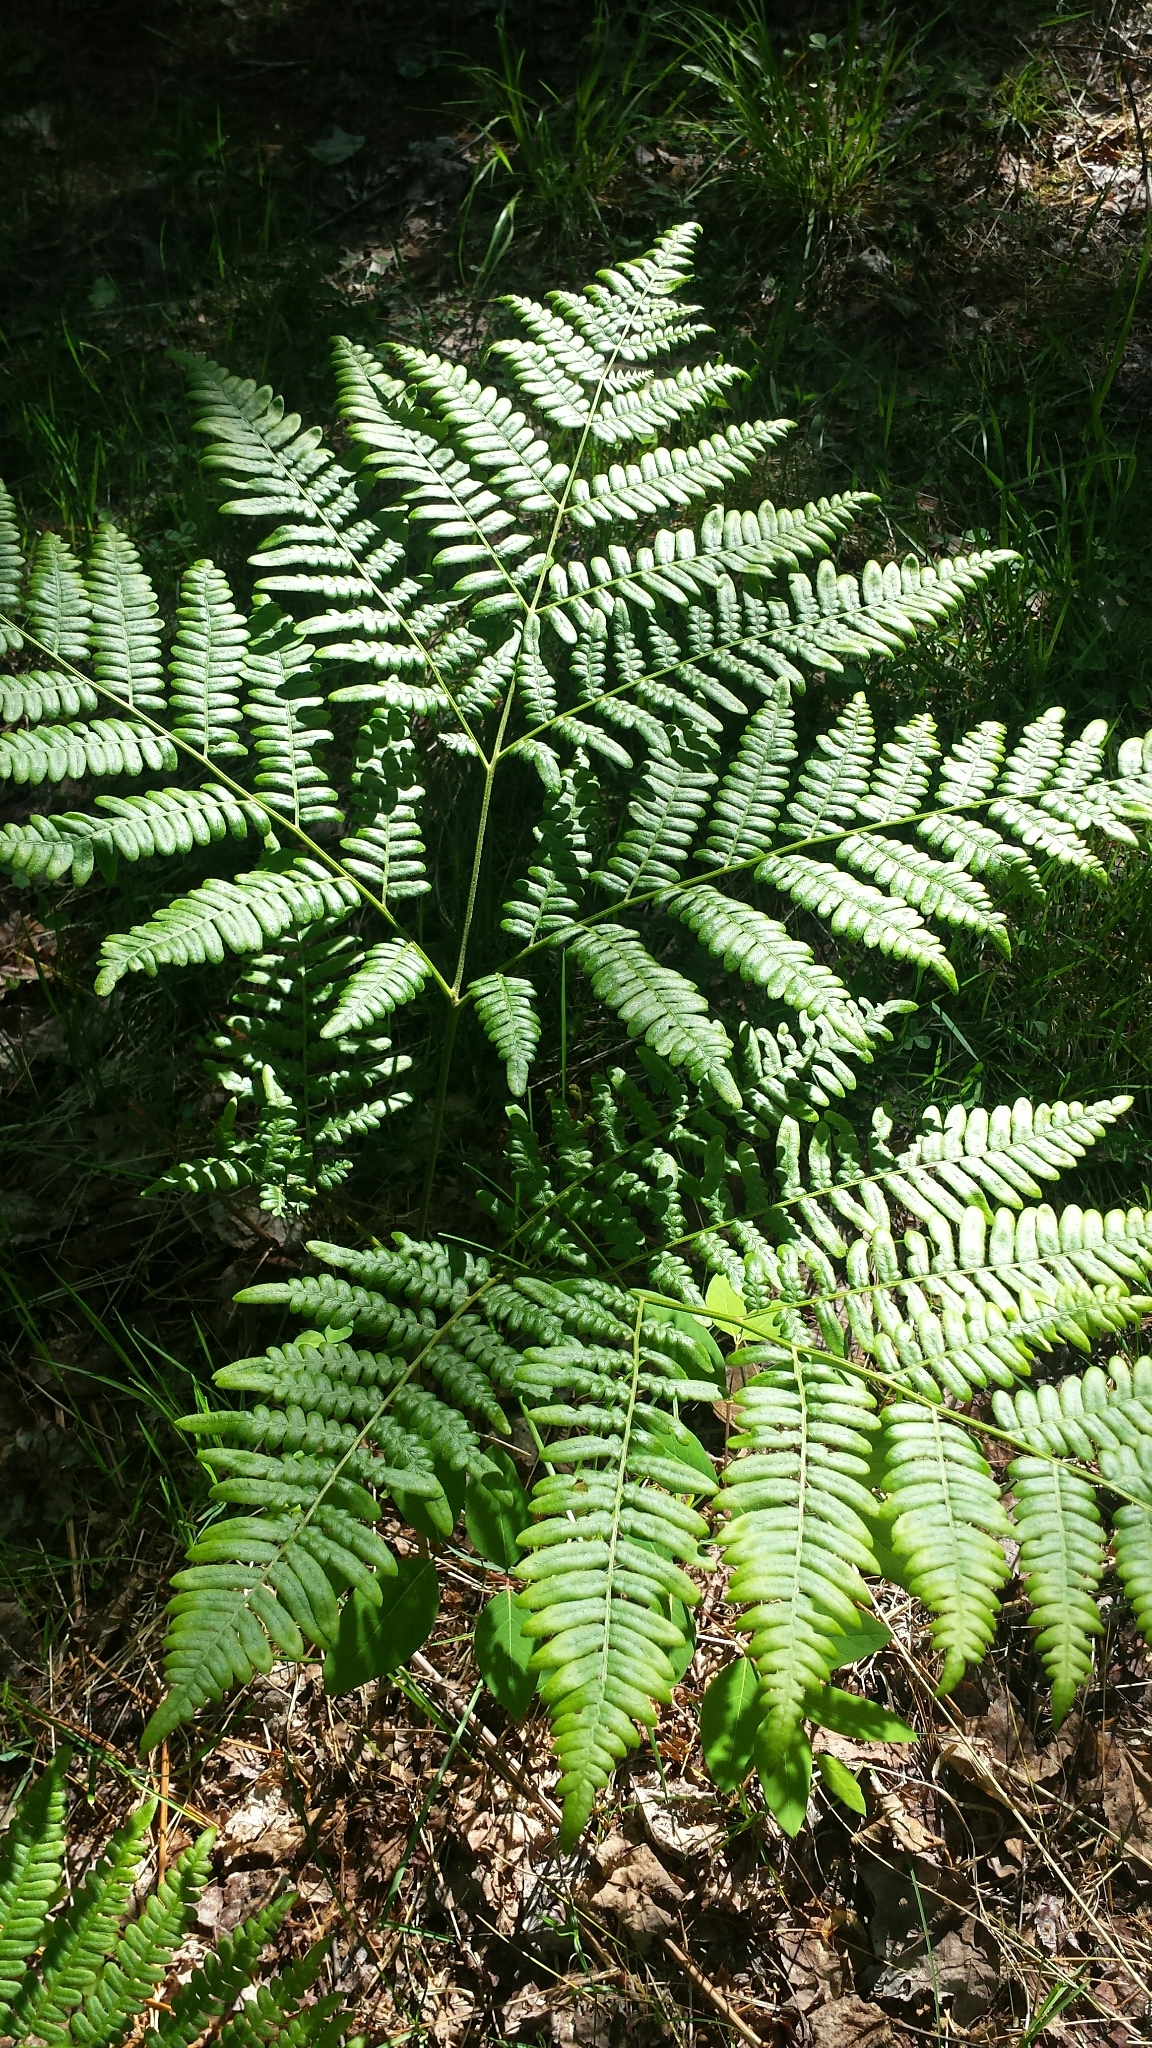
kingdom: Plantae
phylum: Tracheophyta
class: Polypodiopsida
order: Polypodiales
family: Dennstaedtiaceae
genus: Pteridium
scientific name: Pteridium aquilinum
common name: Bracken
